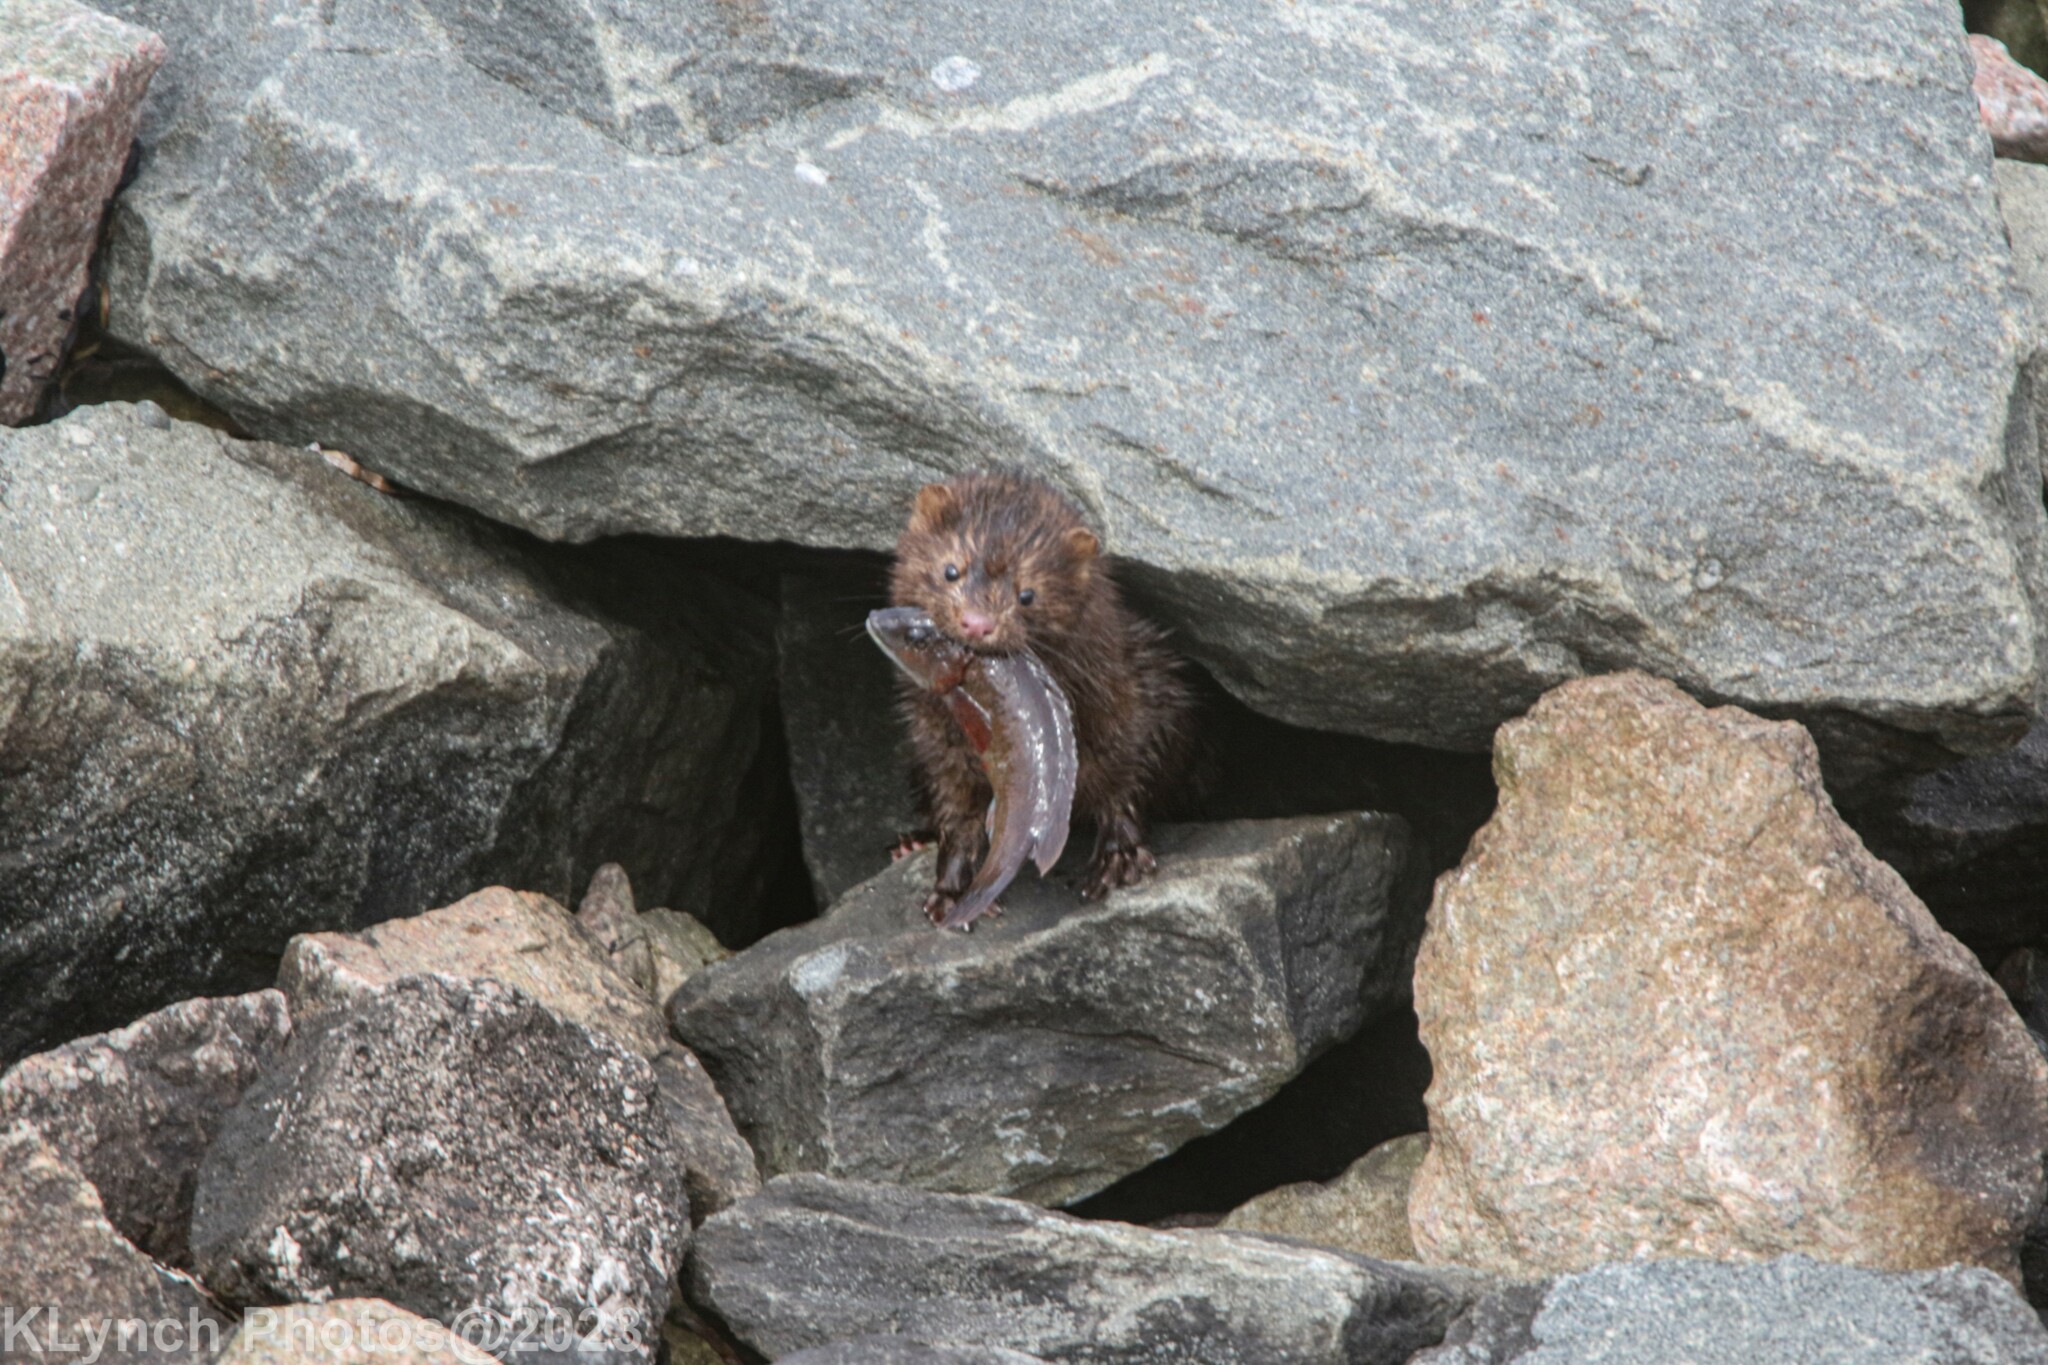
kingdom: Animalia
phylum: Chordata
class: Mammalia
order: Carnivora
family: Mustelidae
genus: Mustela
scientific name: Mustela
